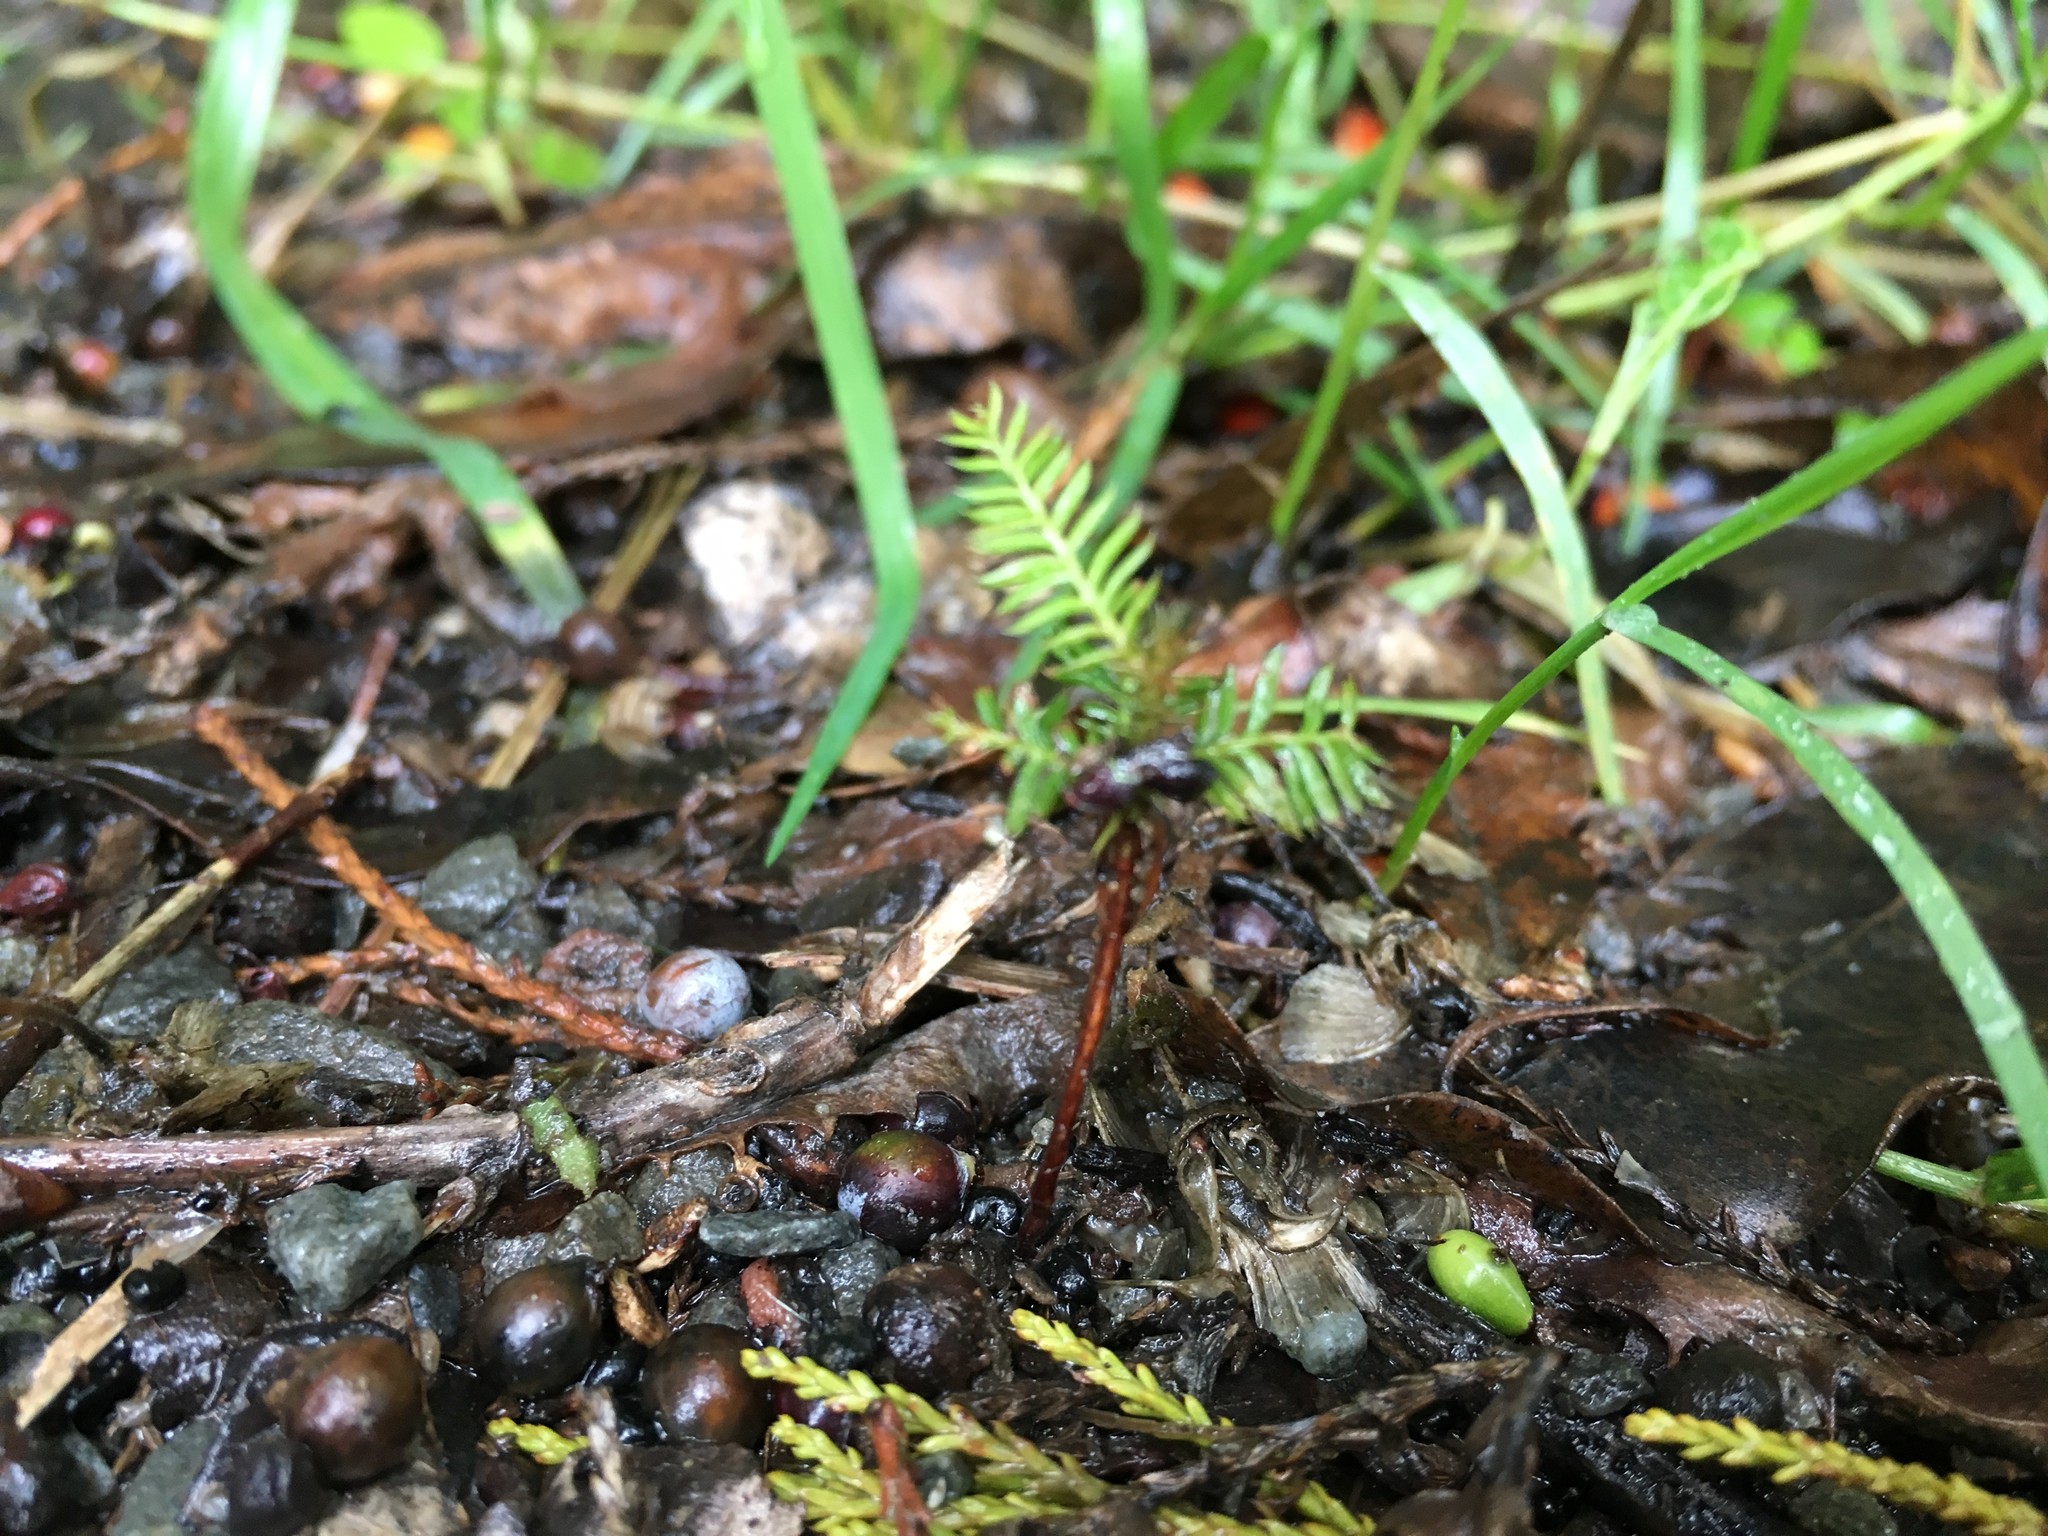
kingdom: Plantae
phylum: Tracheophyta
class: Pinopsida
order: Pinales
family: Podocarpaceae
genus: Dacrycarpus
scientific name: Dacrycarpus dacrydioides
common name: White pine
